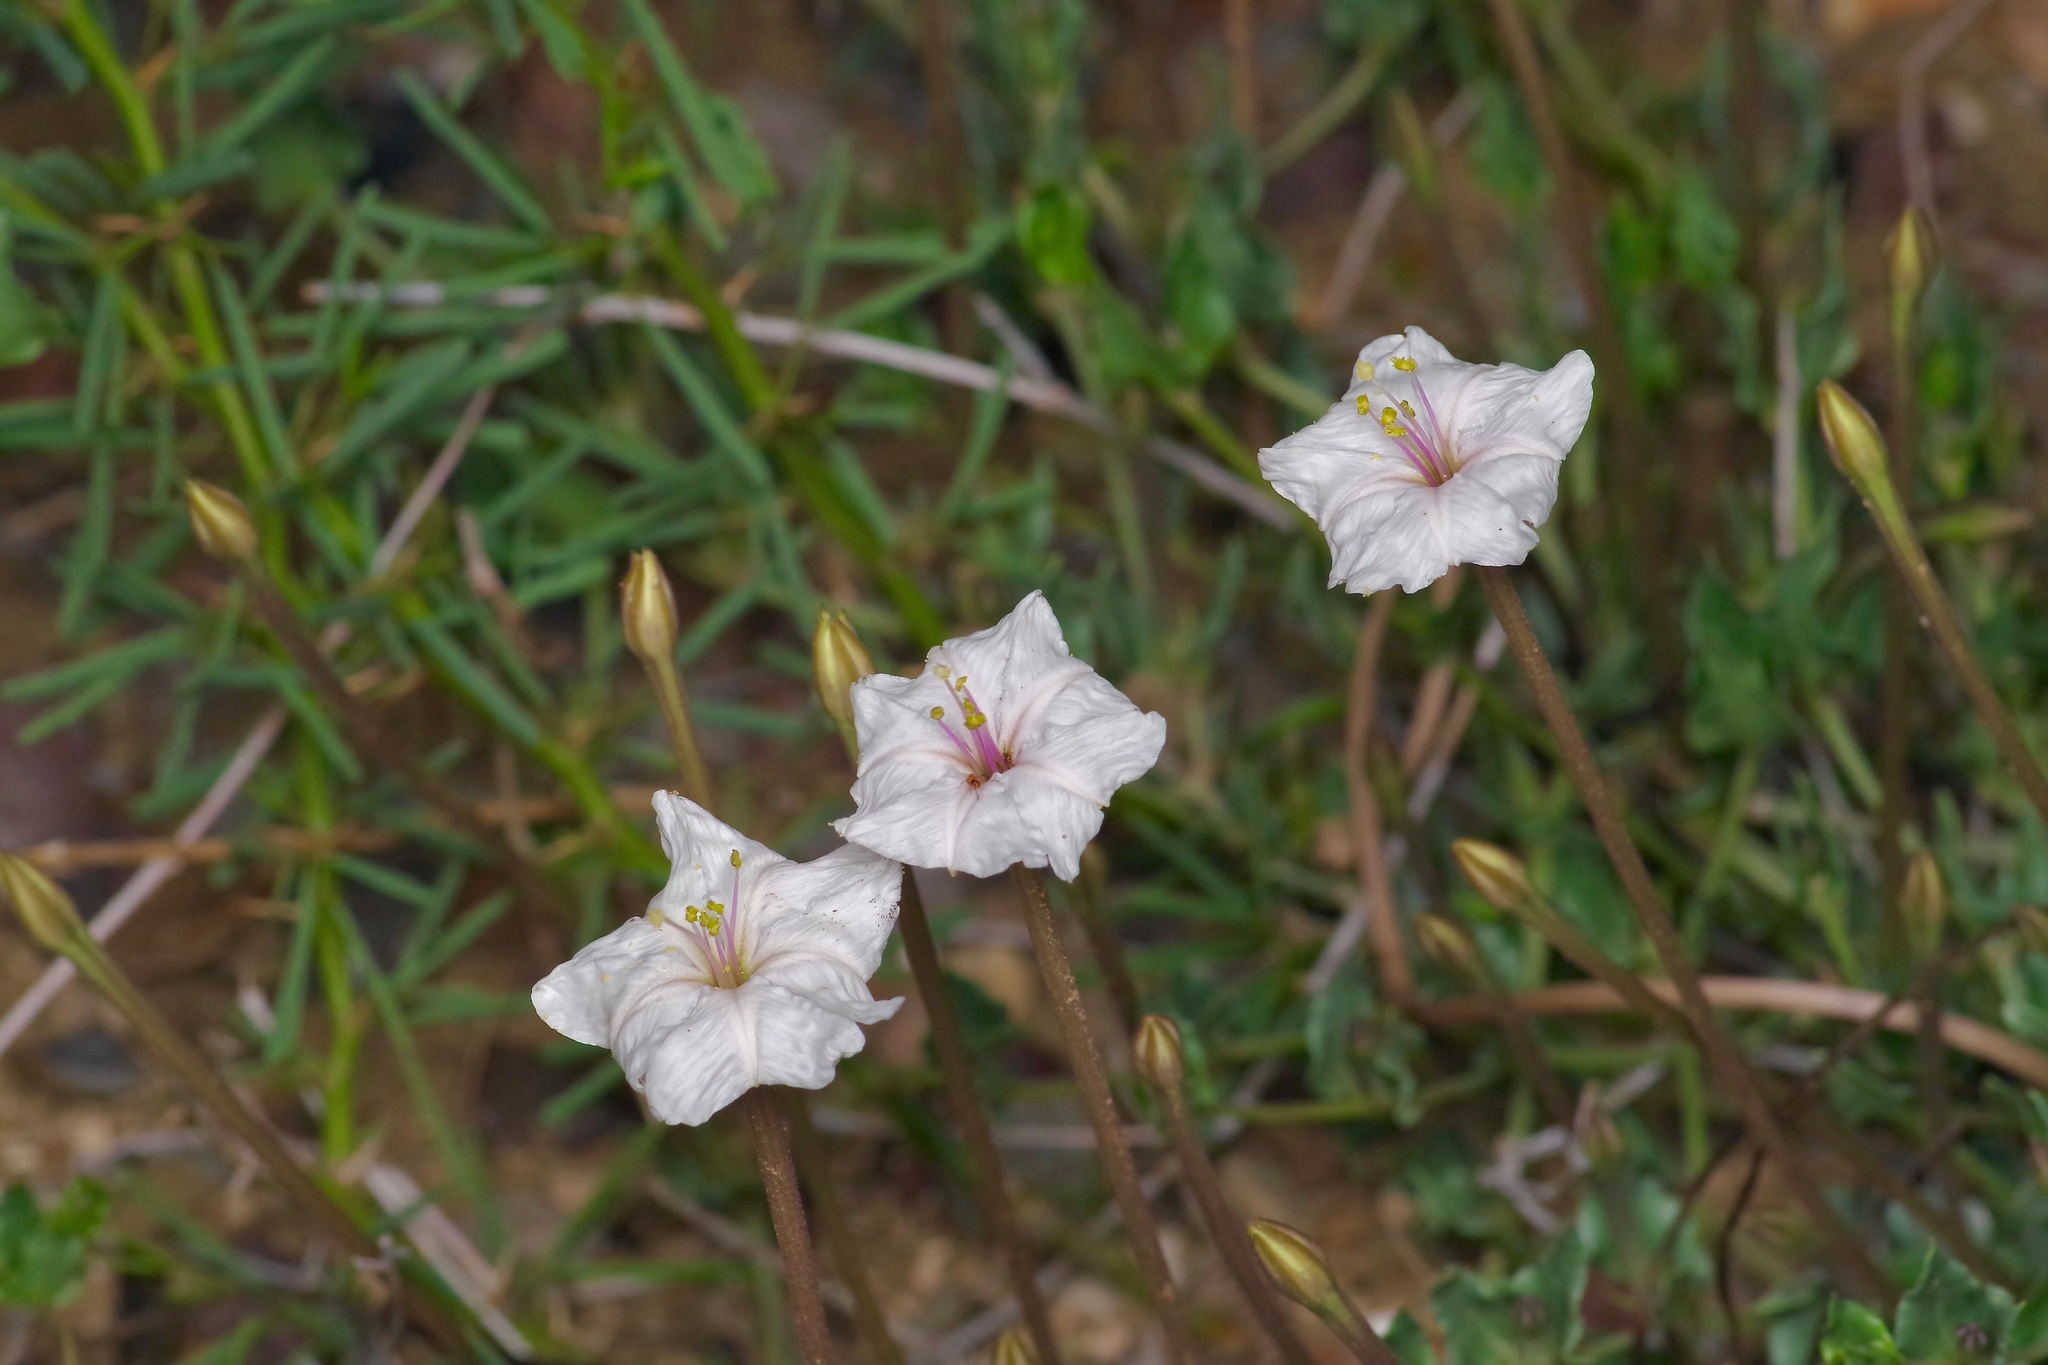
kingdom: Plantae
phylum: Tracheophyta
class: Magnoliopsida
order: Caryophyllales
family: Nyctaginaceae
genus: Acleisanthes
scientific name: Acleisanthes longiflora
